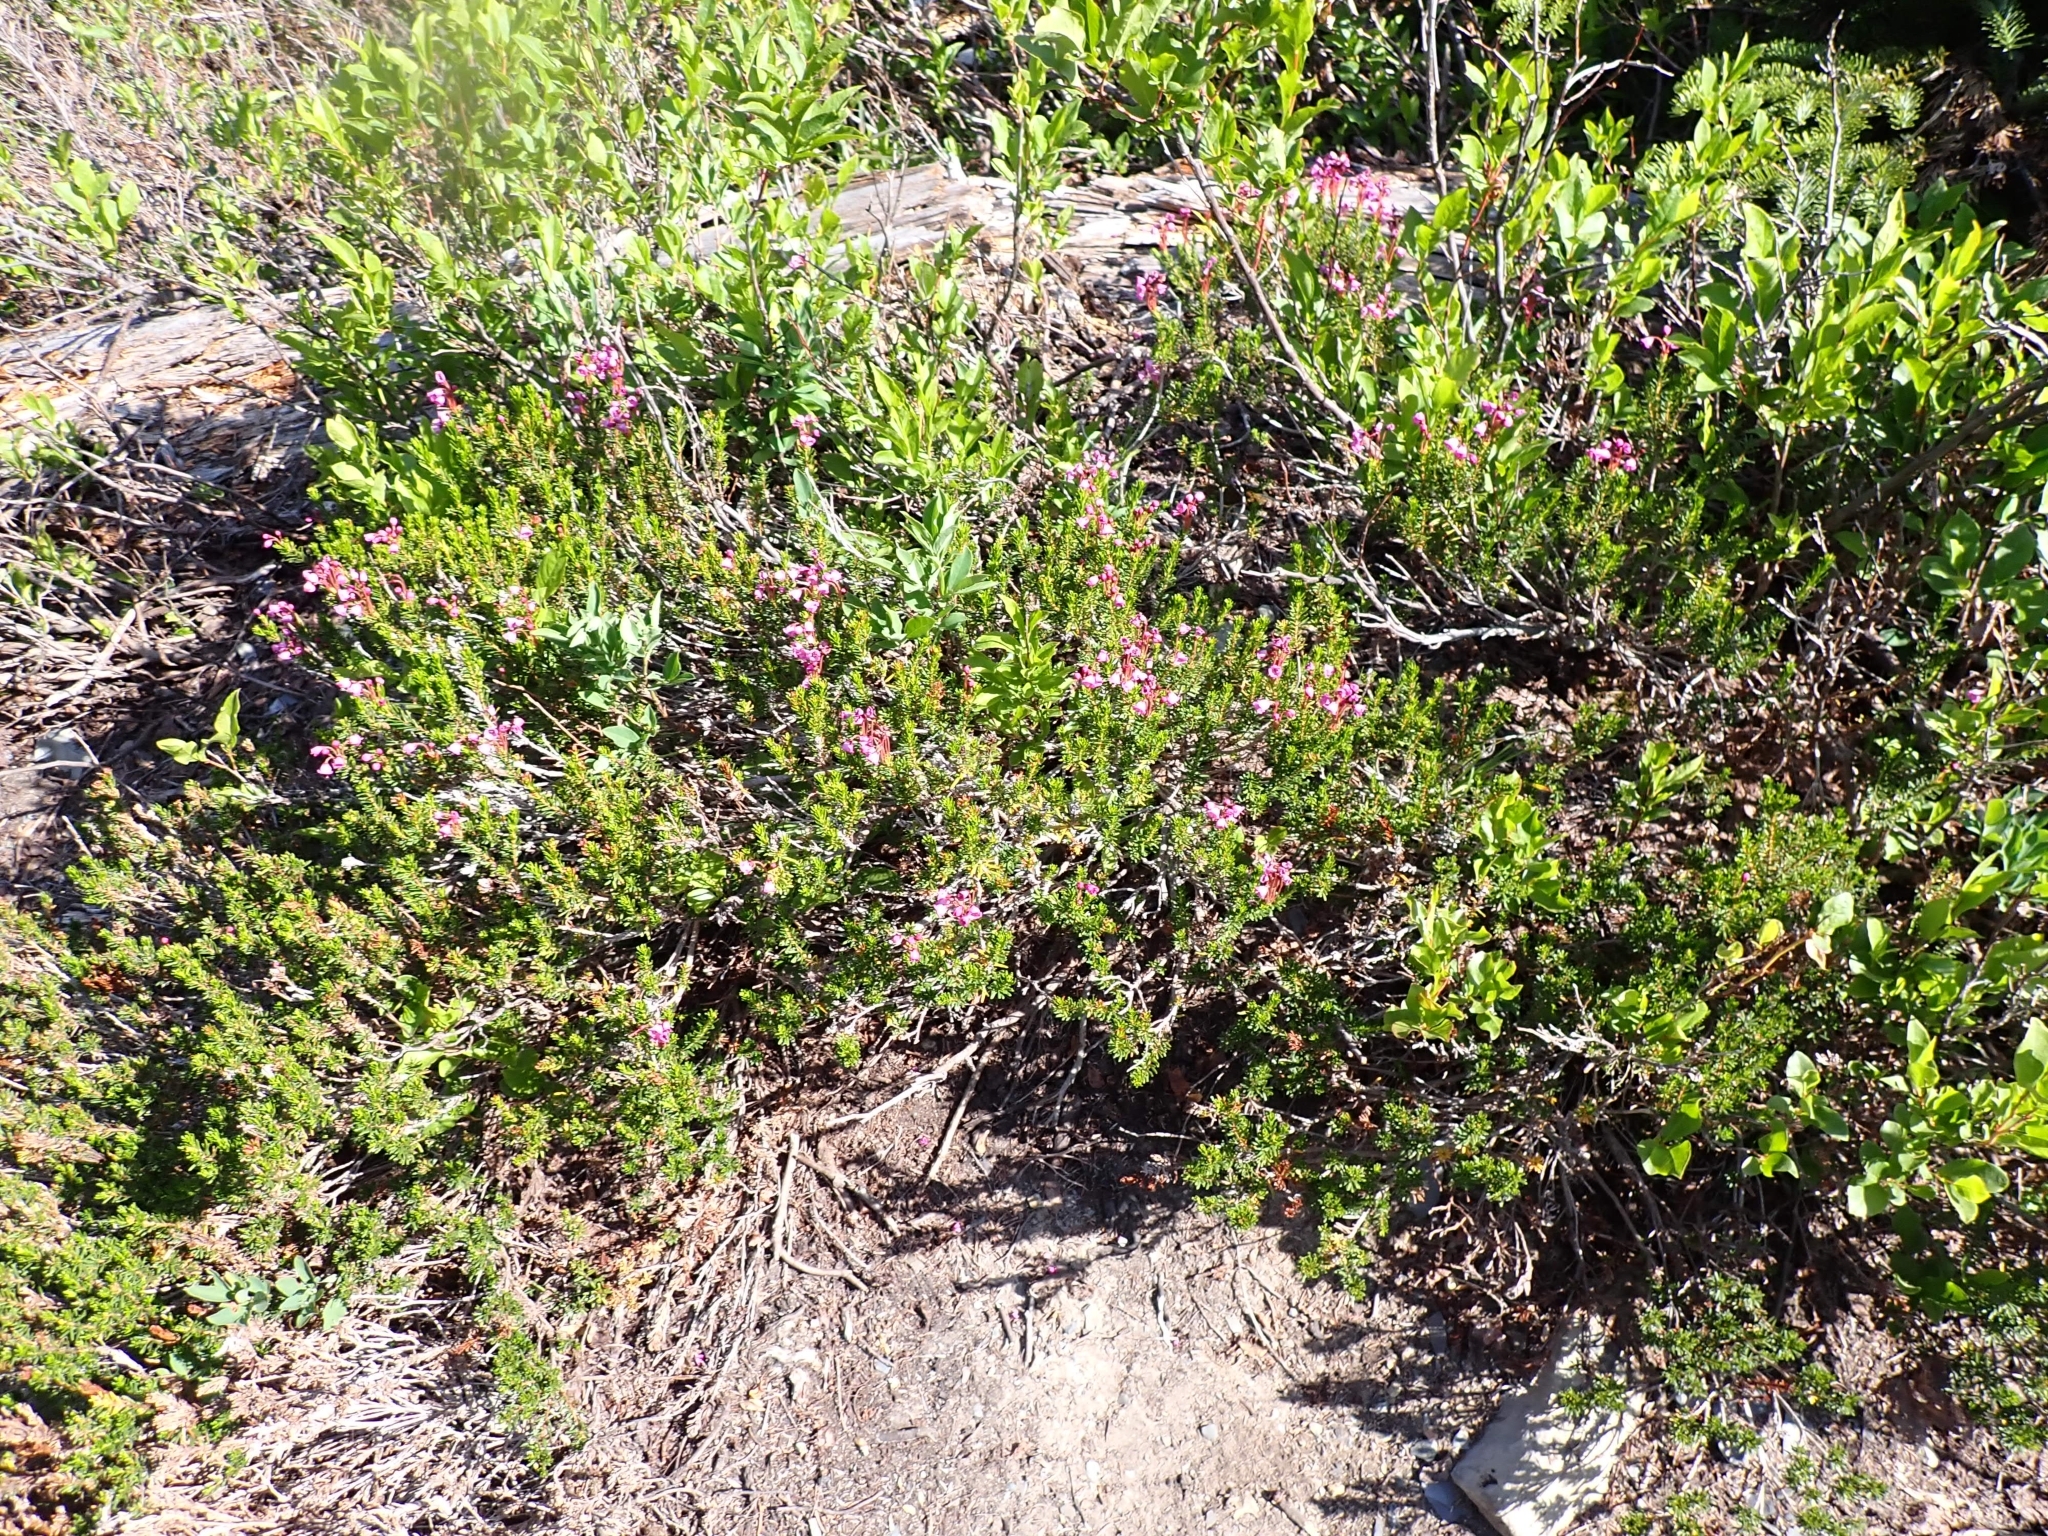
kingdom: Plantae
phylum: Tracheophyta
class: Magnoliopsida
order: Ericales
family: Ericaceae
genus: Phyllodoce
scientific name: Phyllodoce empetriformis
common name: Pink mountain heather
